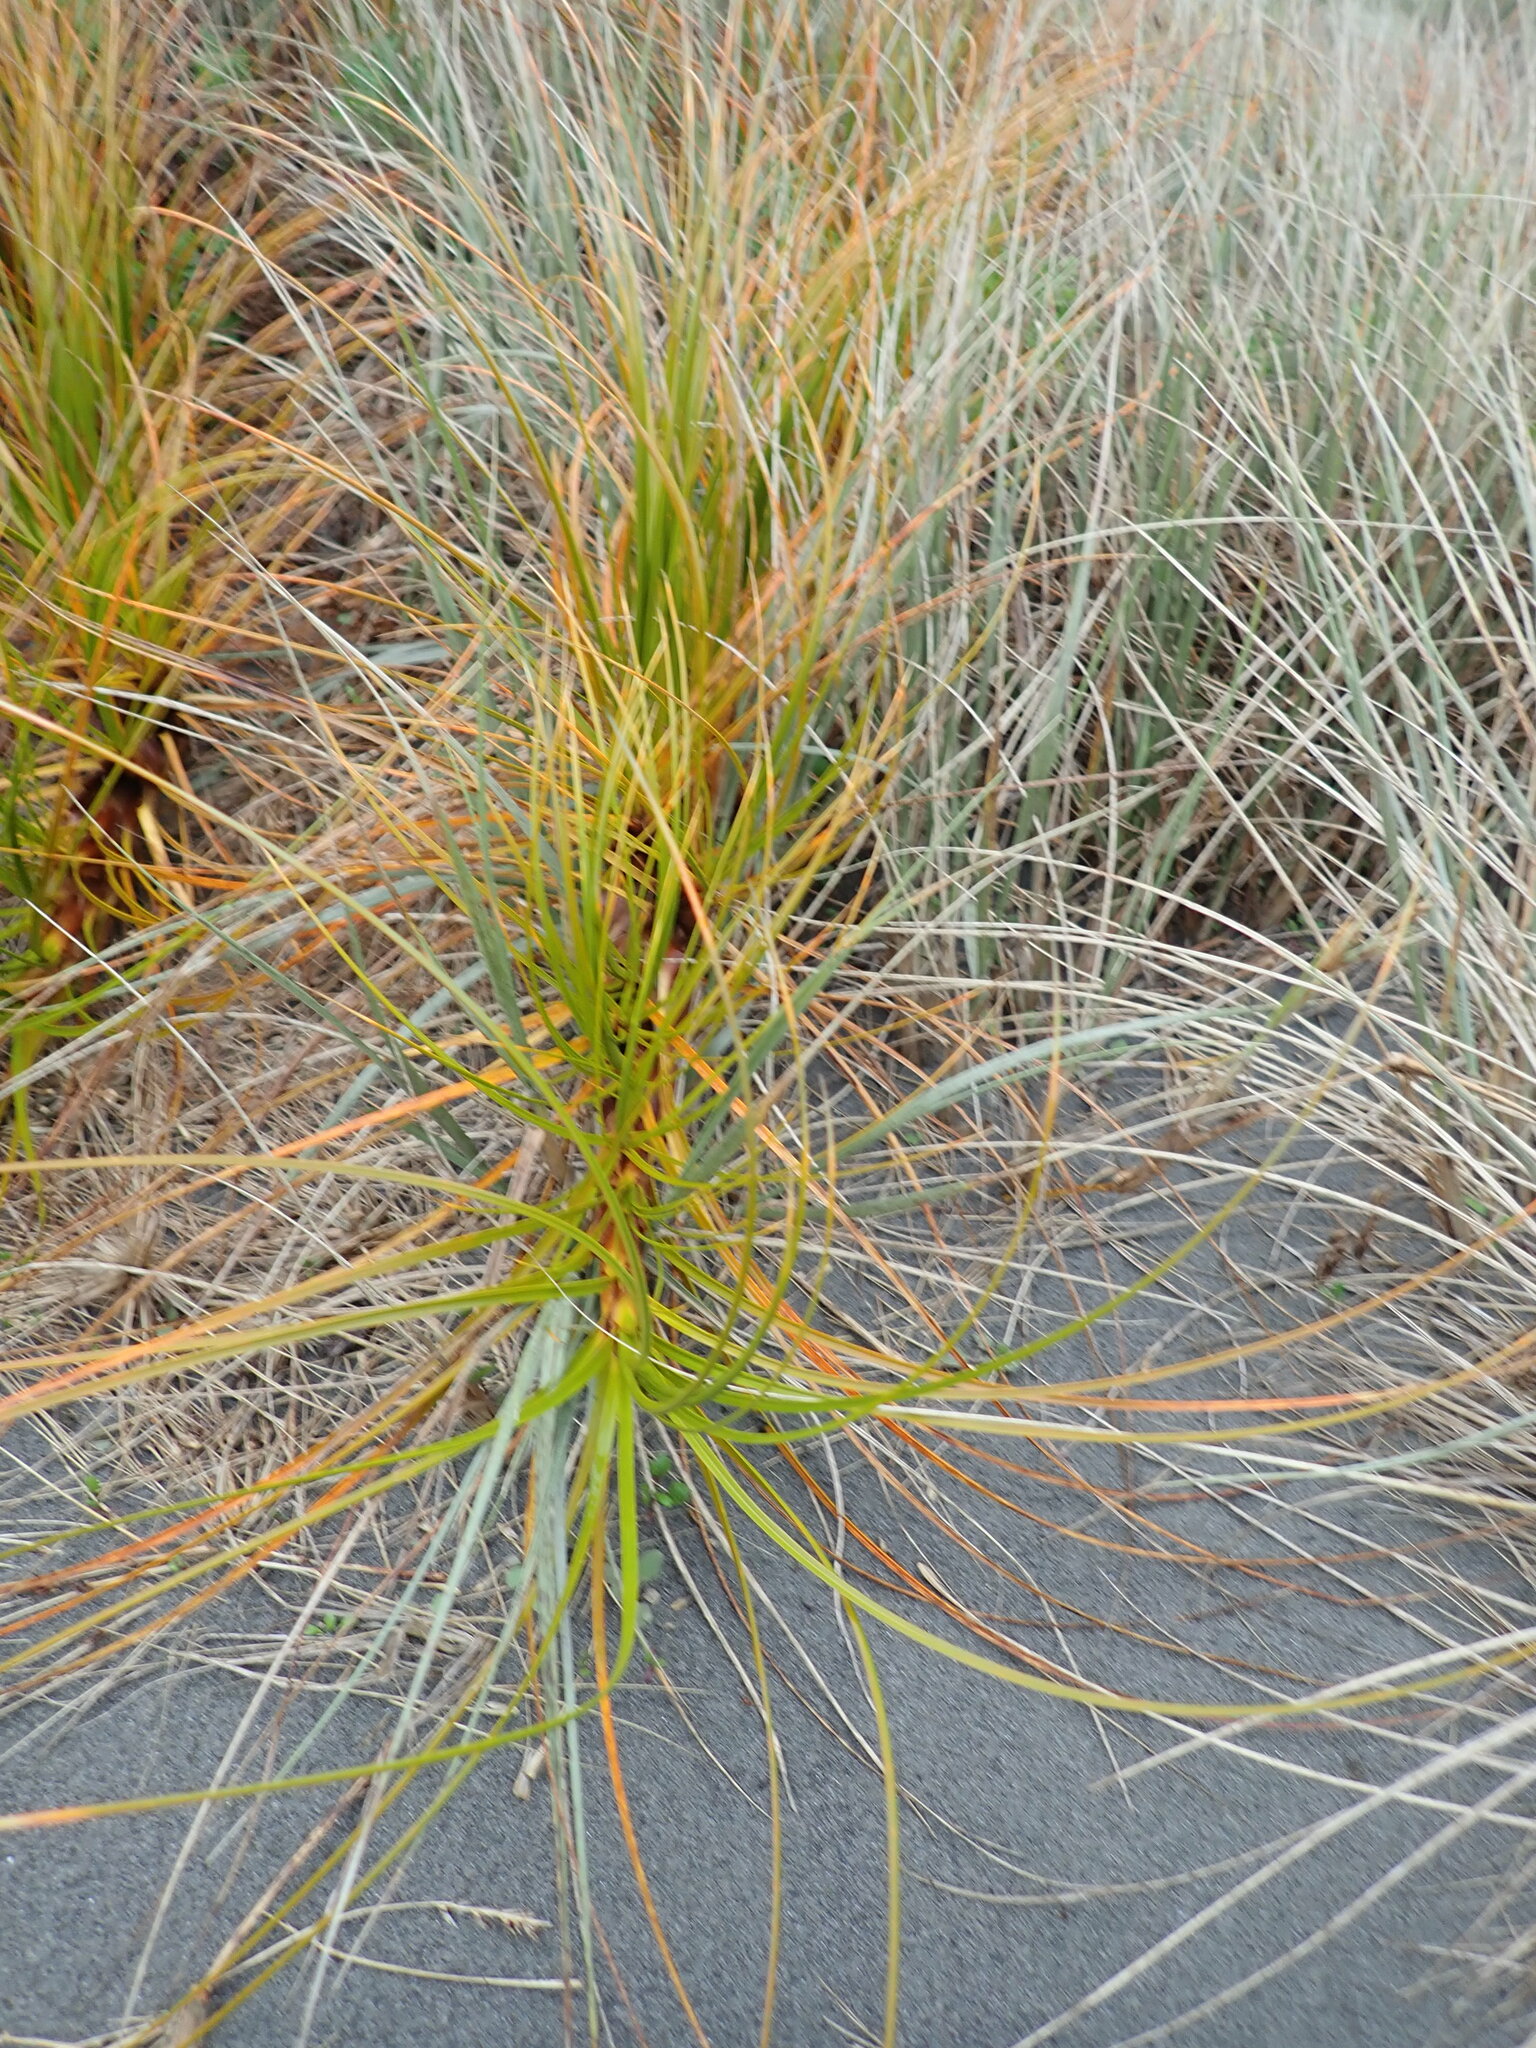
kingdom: Plantae
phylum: Tracheophyta
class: Liliopsida
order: Poales
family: Cyperaceae
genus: Ficinia
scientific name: Ficinia spiralis
